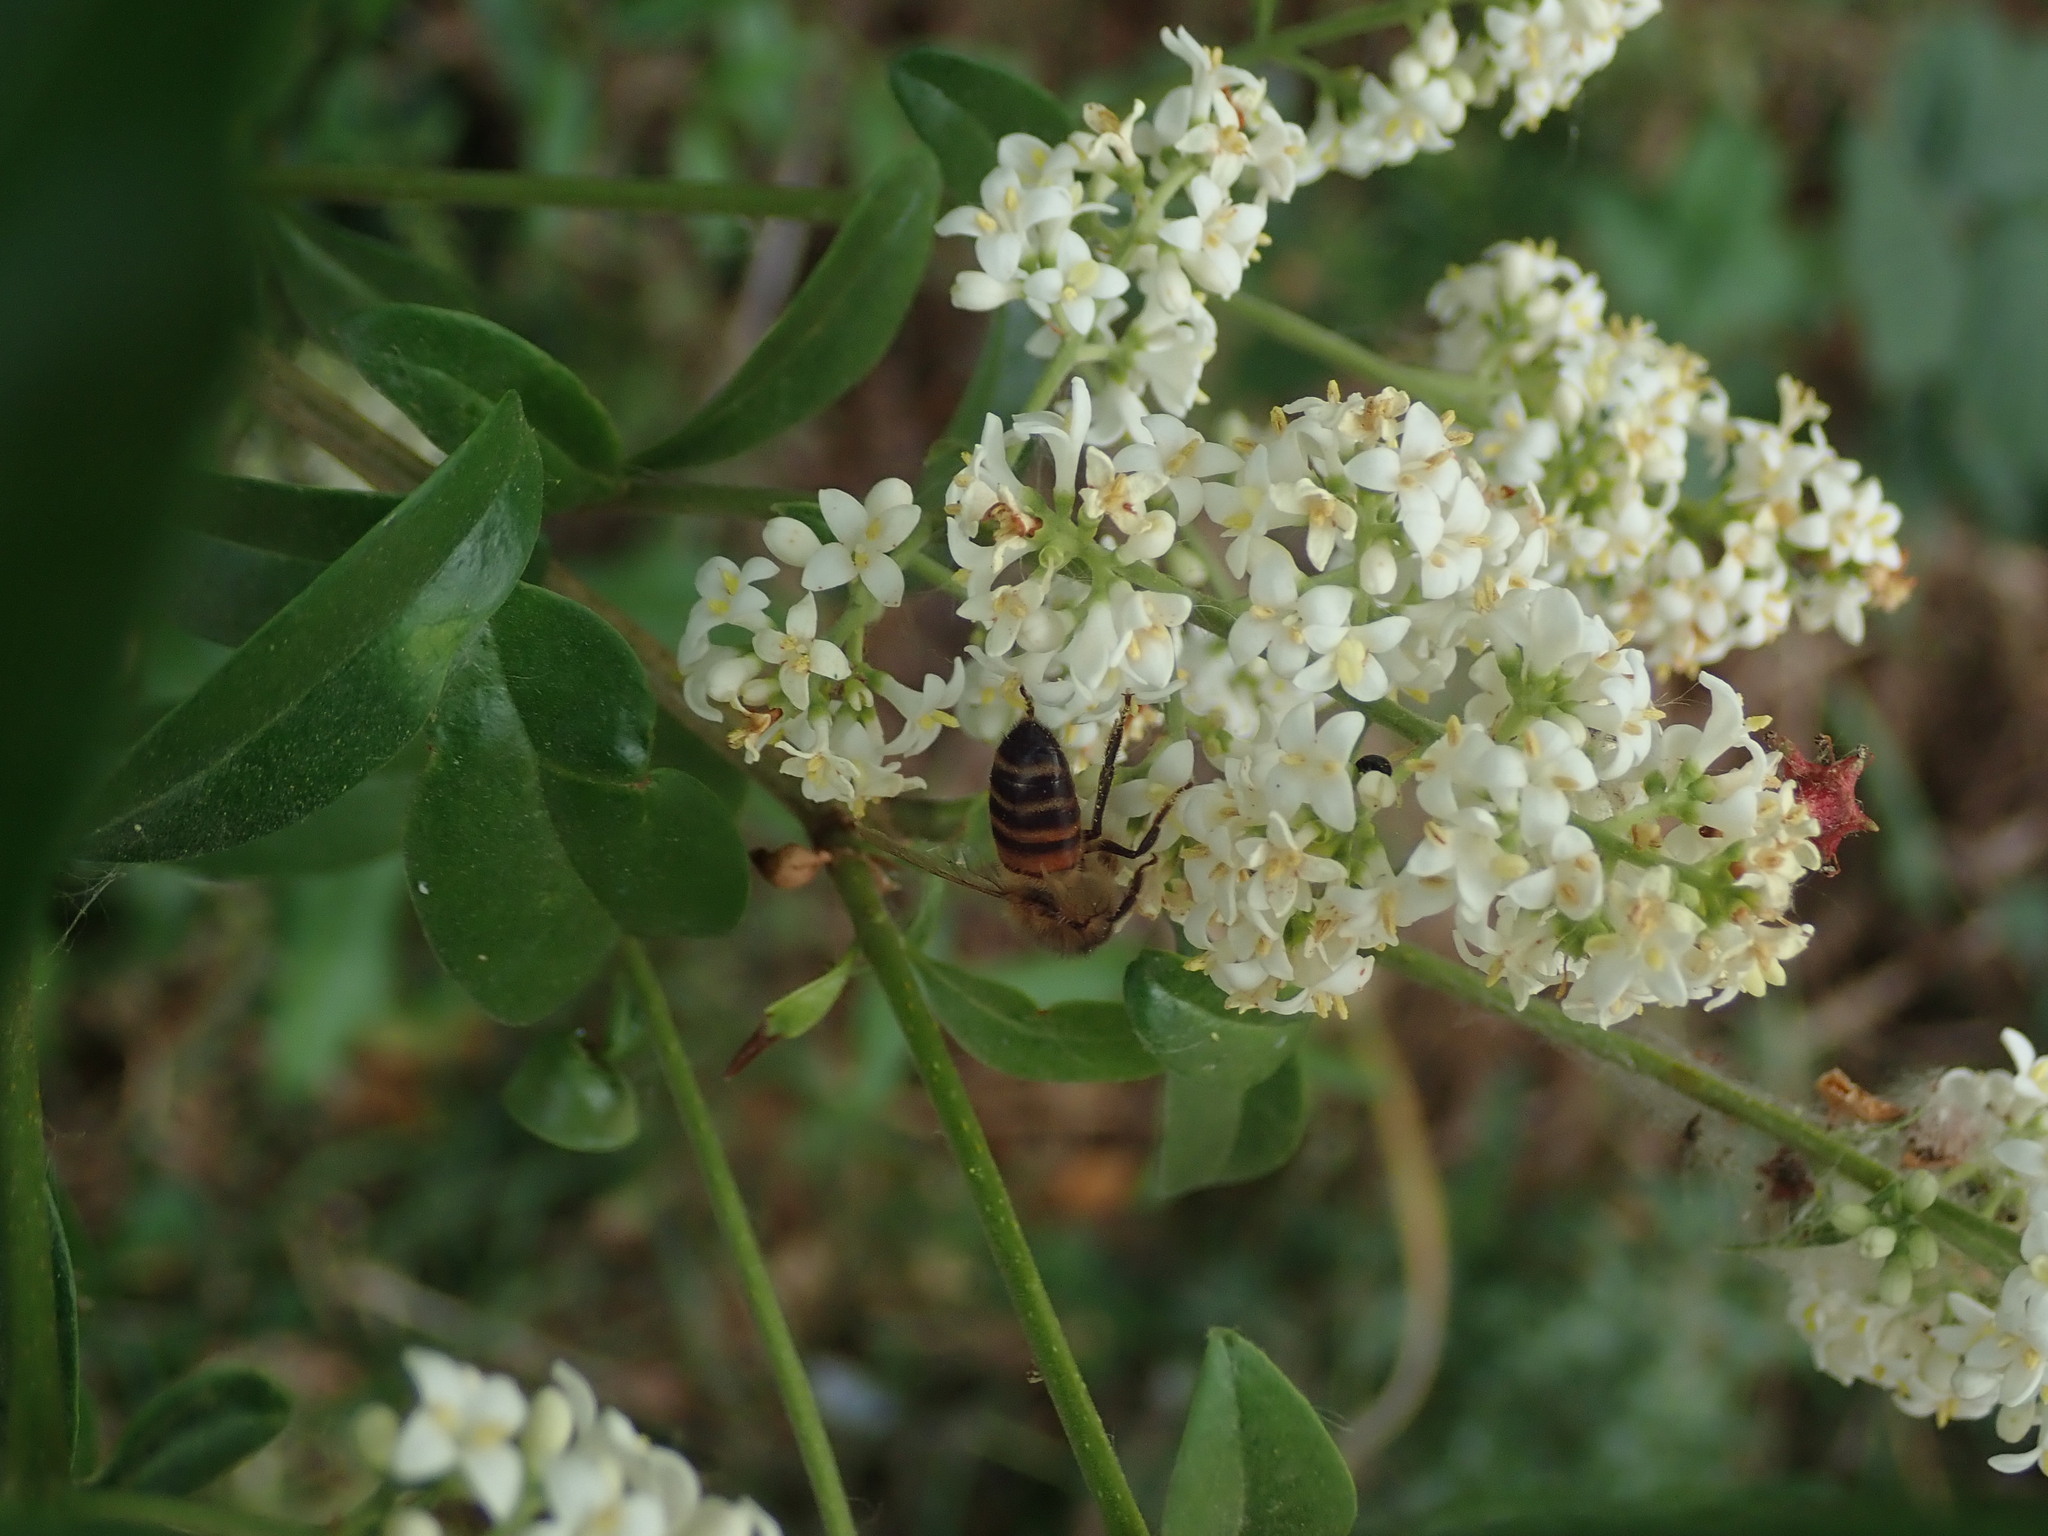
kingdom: Animalia
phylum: Arthropoda
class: Insecta
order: Hymenoptera
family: Apidae
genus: Apis
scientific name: Apis mellifera
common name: Honey bee
